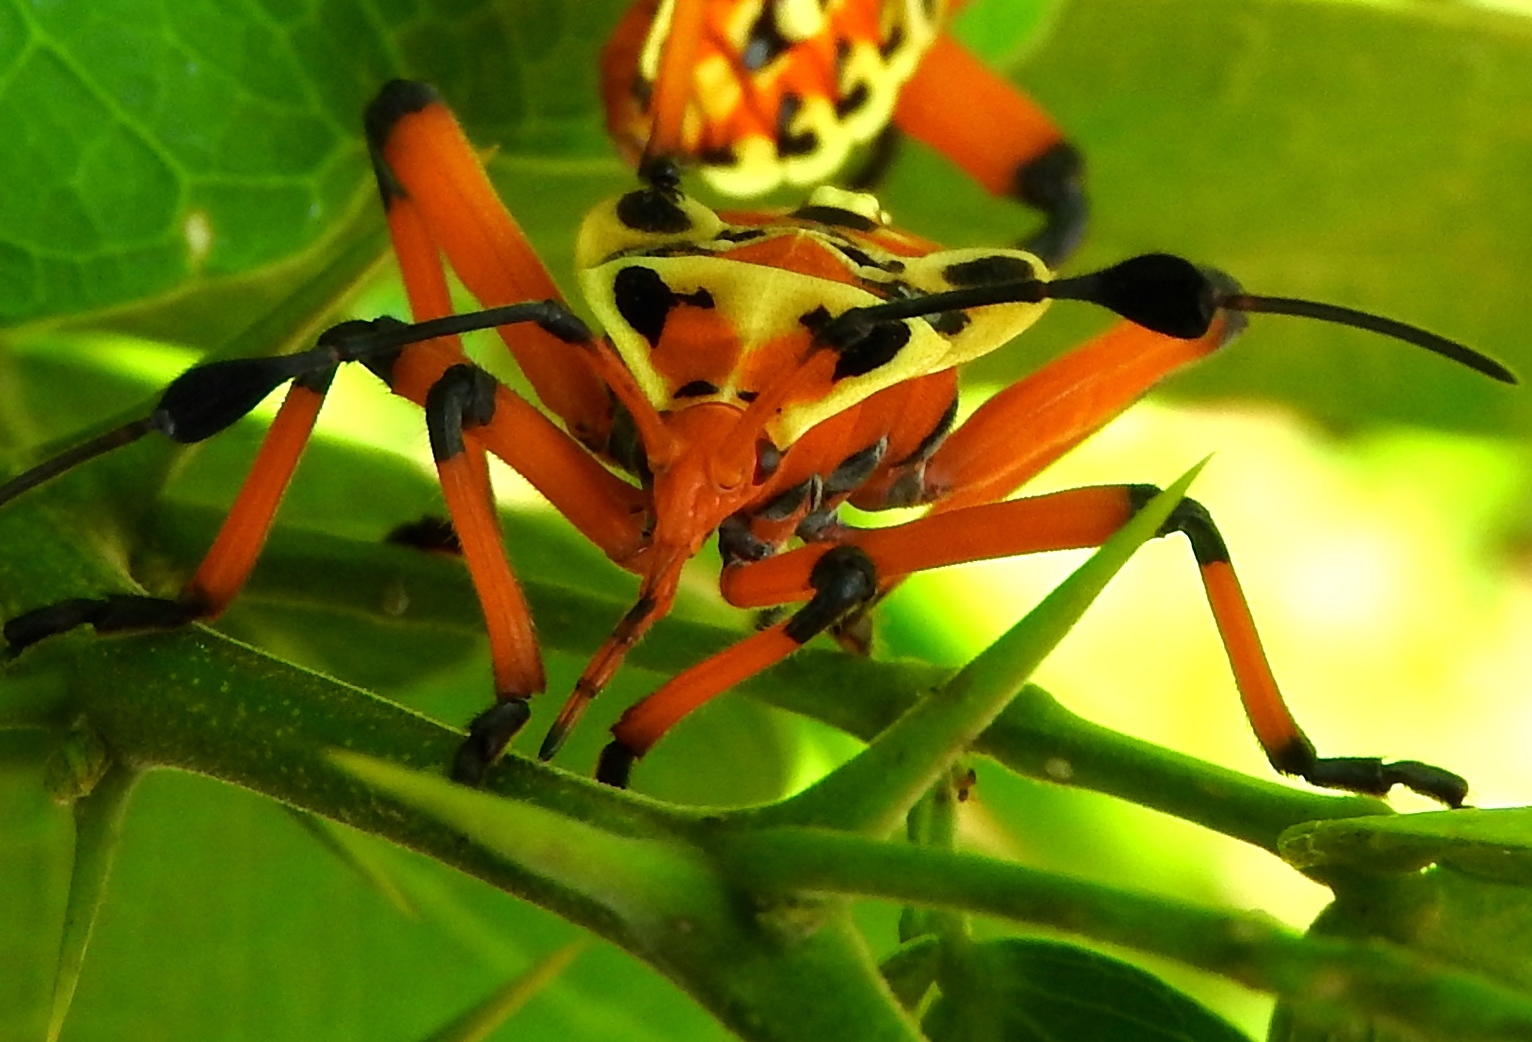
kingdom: Animalia
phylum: Arthropoda
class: Insecta
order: Hemiptera
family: Coreidae
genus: Pachylis
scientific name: Pachylis nervosus
